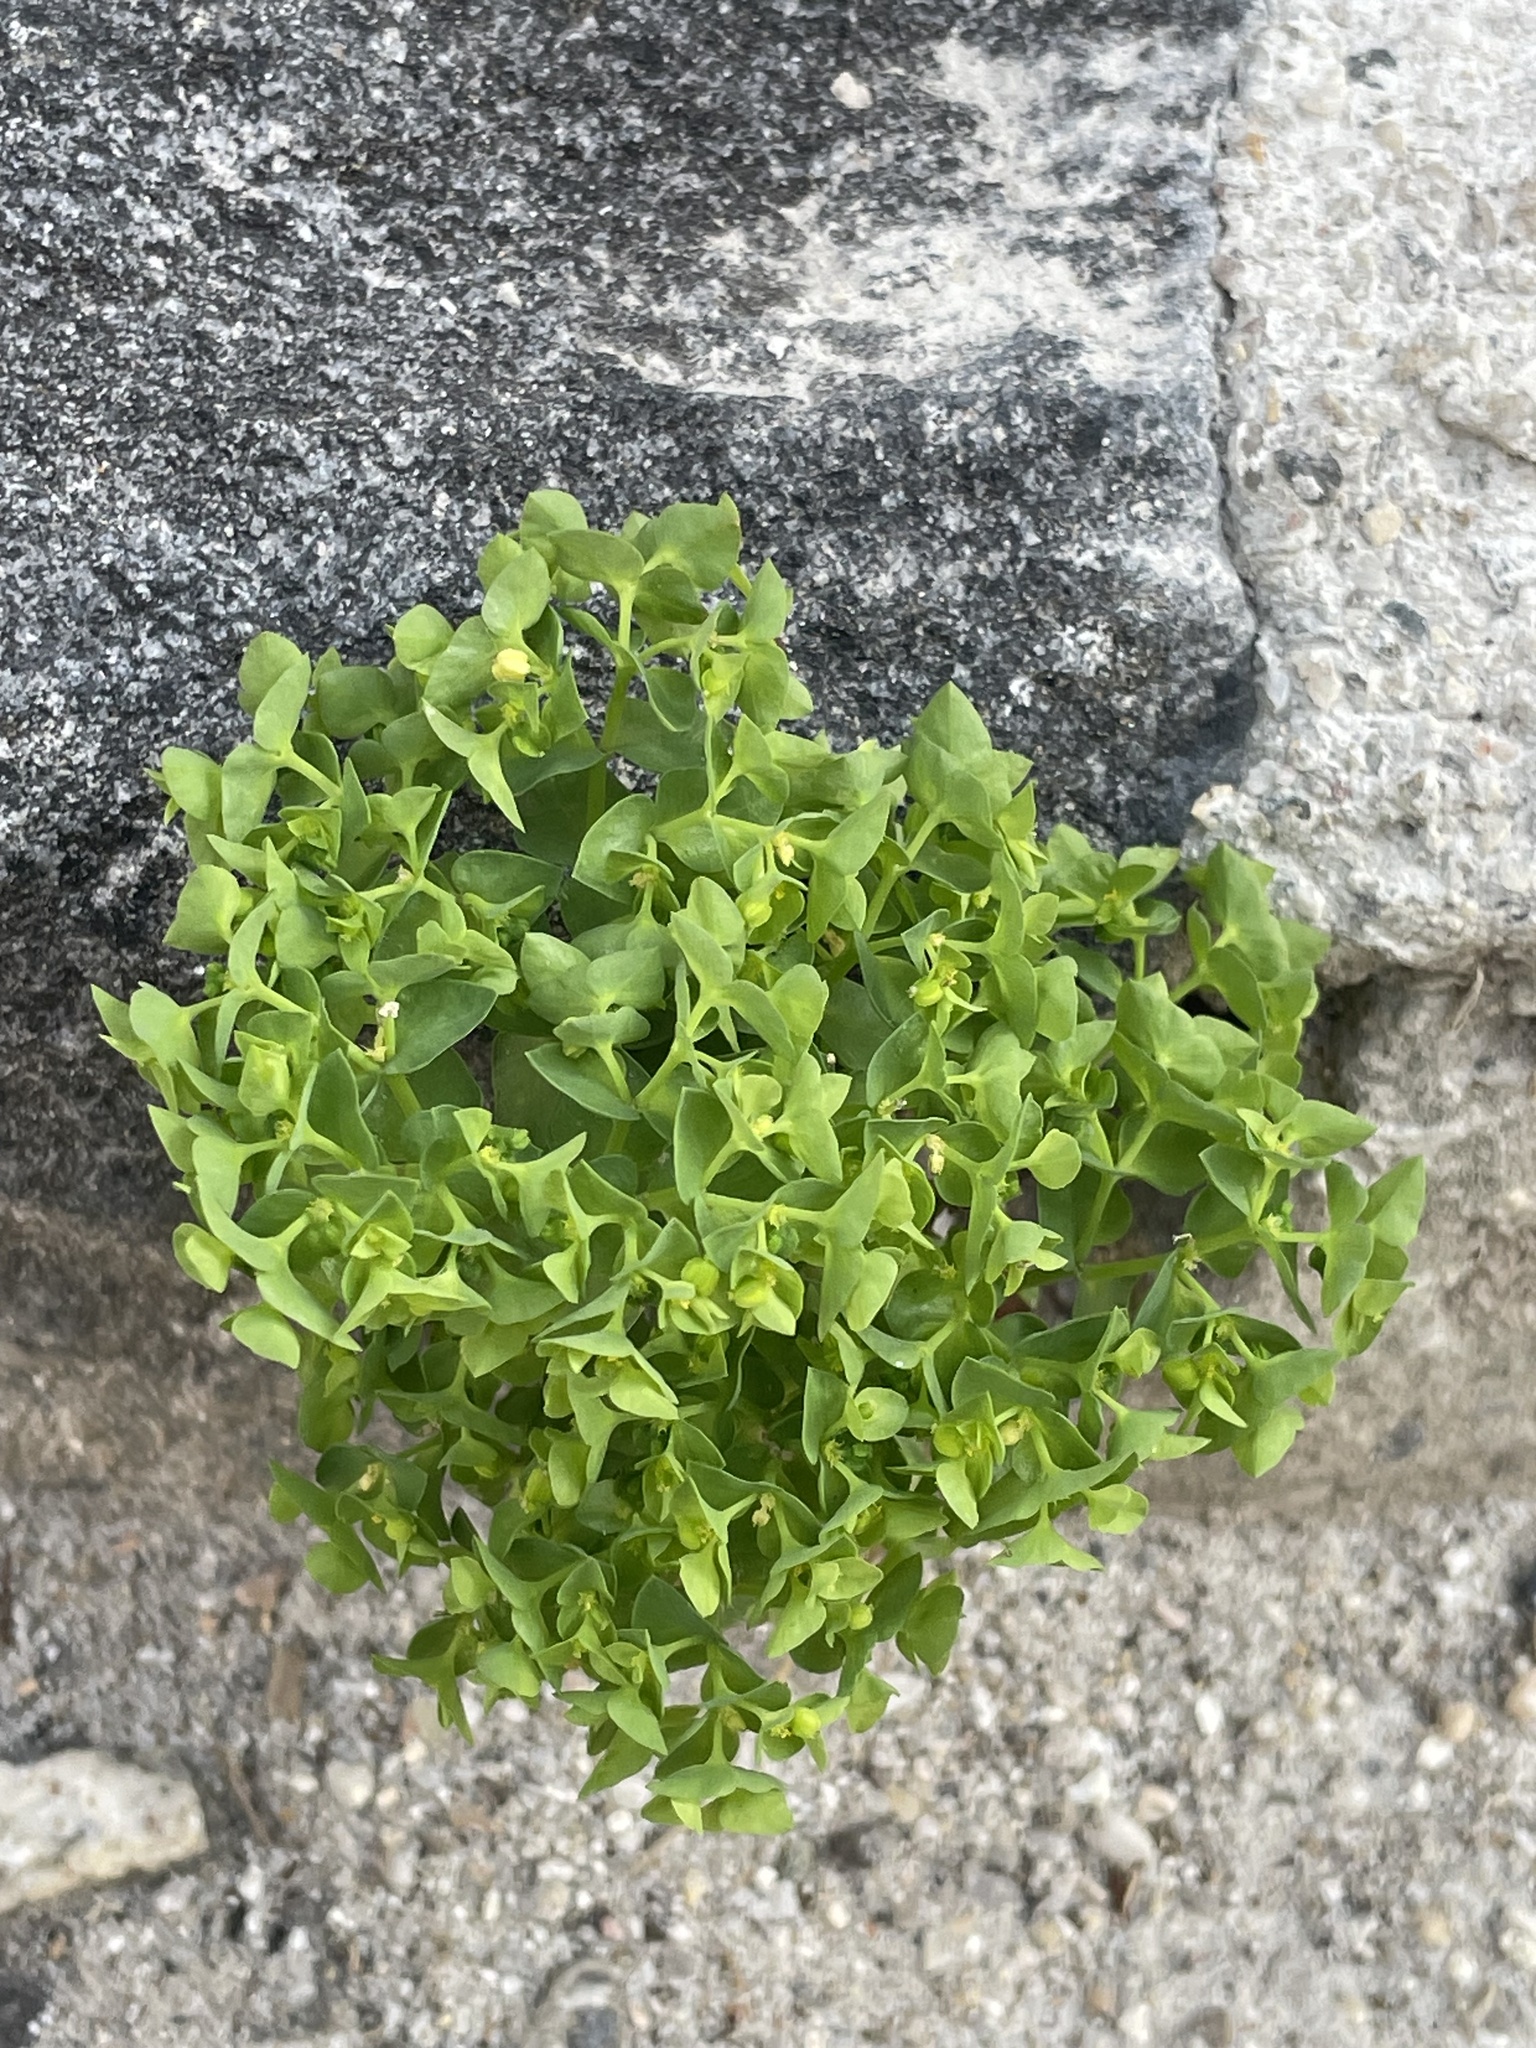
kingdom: Plantae
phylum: Tracheophyta
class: Magnoliopsida
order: Malpighiales
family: Euphorbiaceae
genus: Euphorbia
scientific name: Euphorbia peplus
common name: Petty spurge
